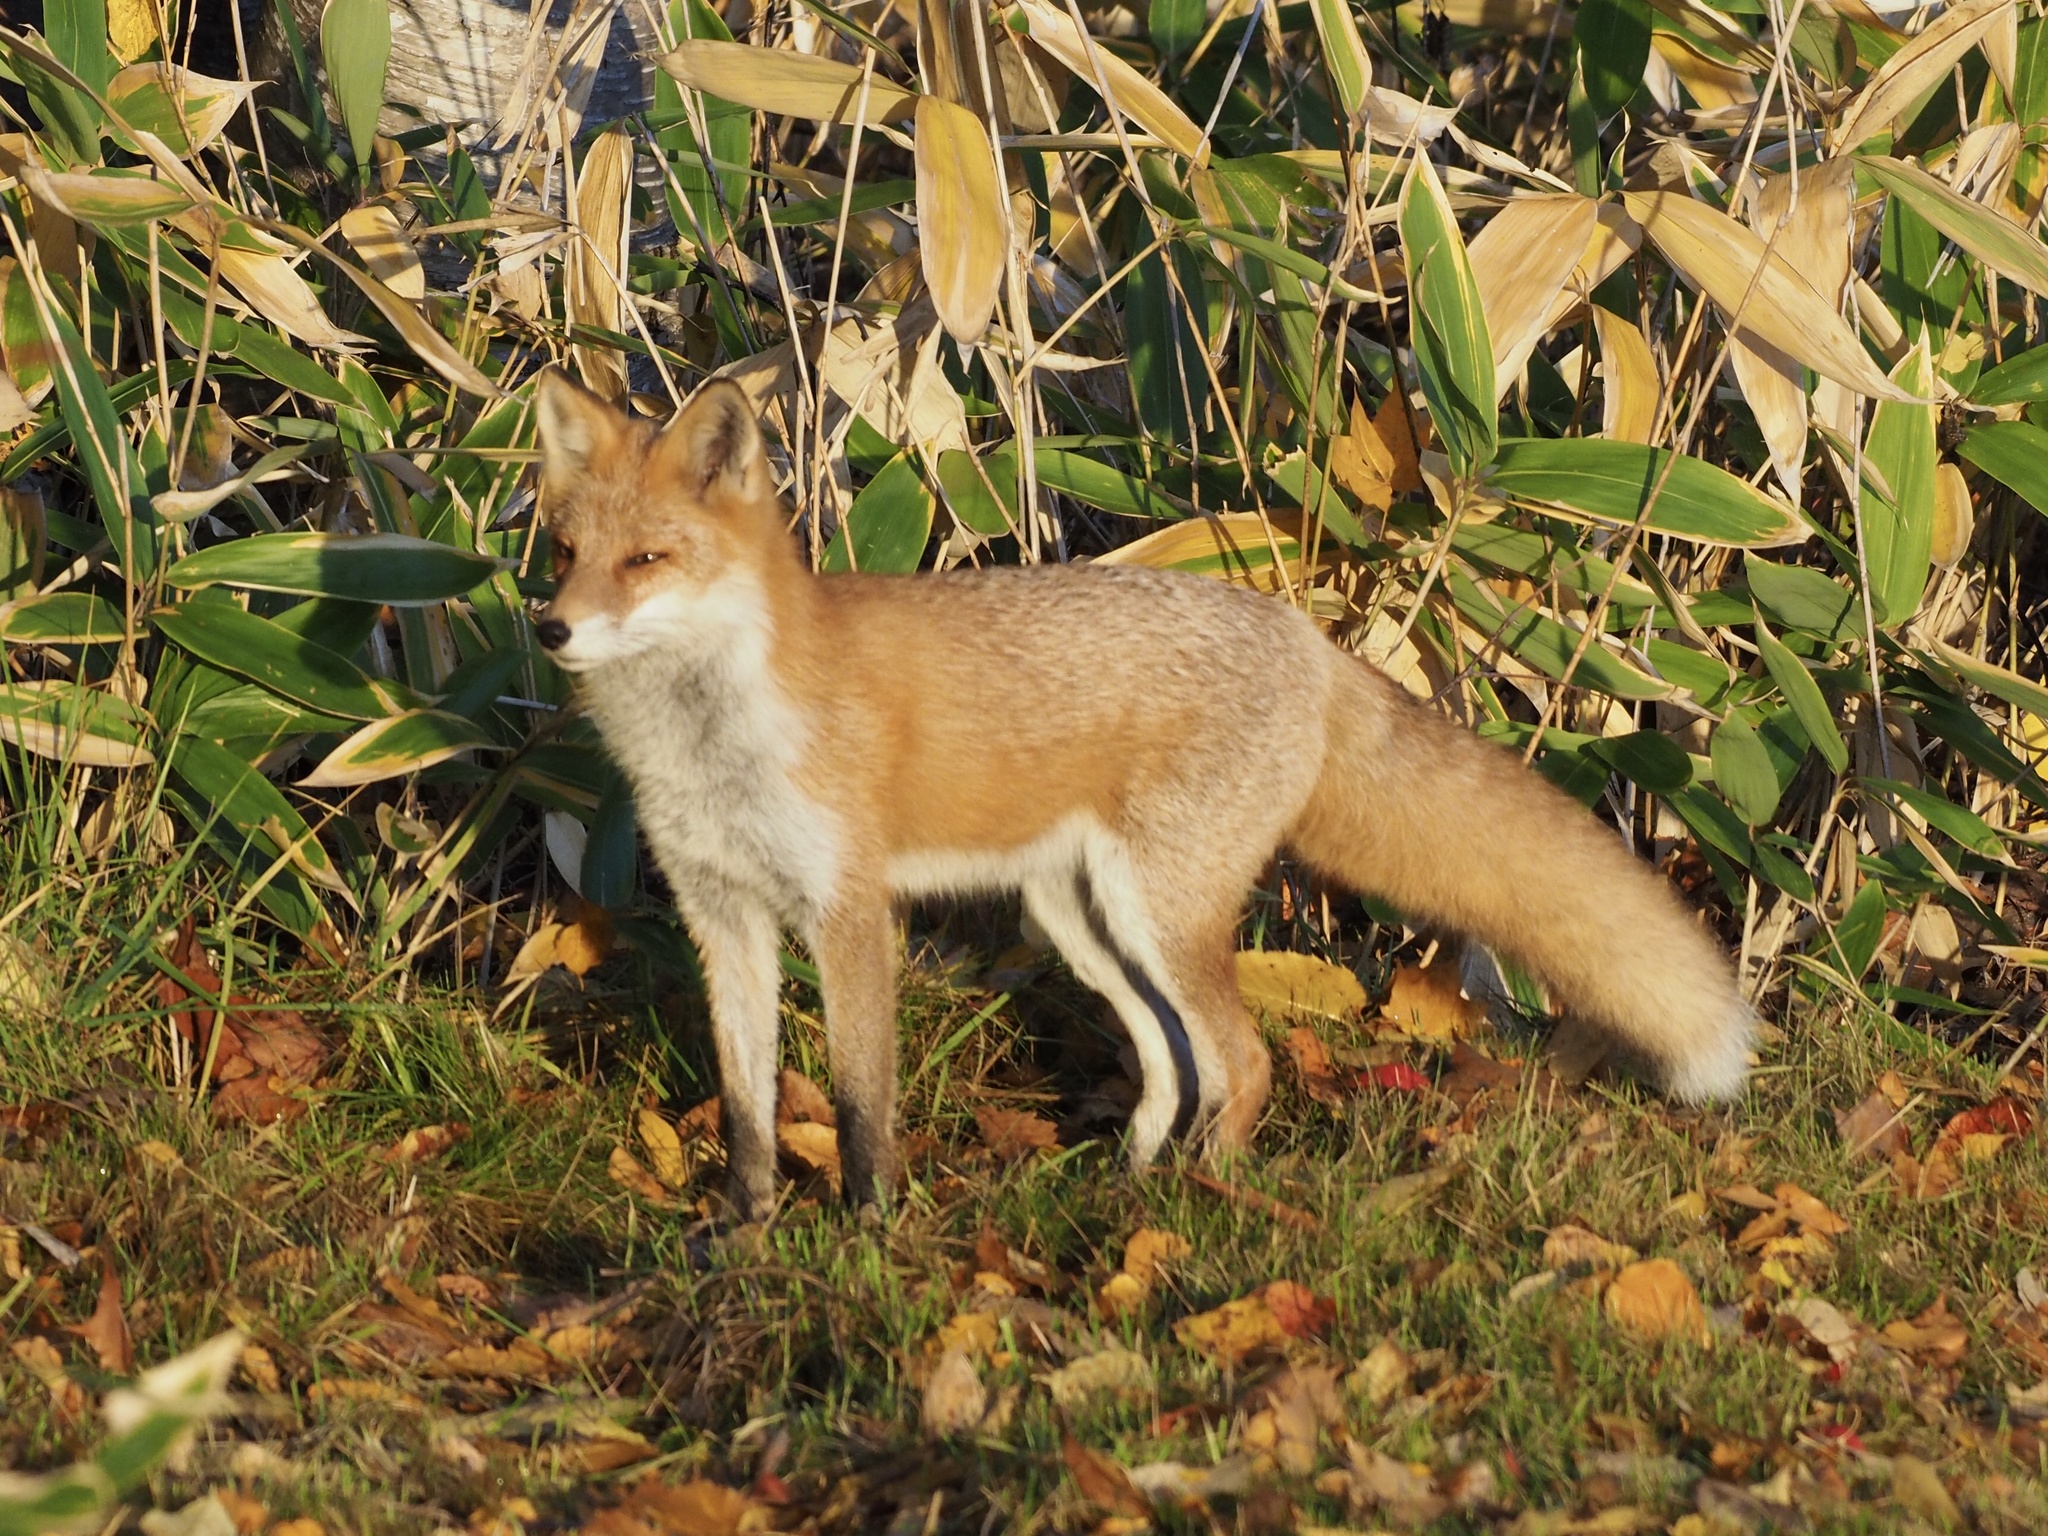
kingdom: Animalia
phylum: Chordata
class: Mammalia
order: Carnivora
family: Canidae
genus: Vulpes
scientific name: Vulpes vulpes
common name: Red fox
